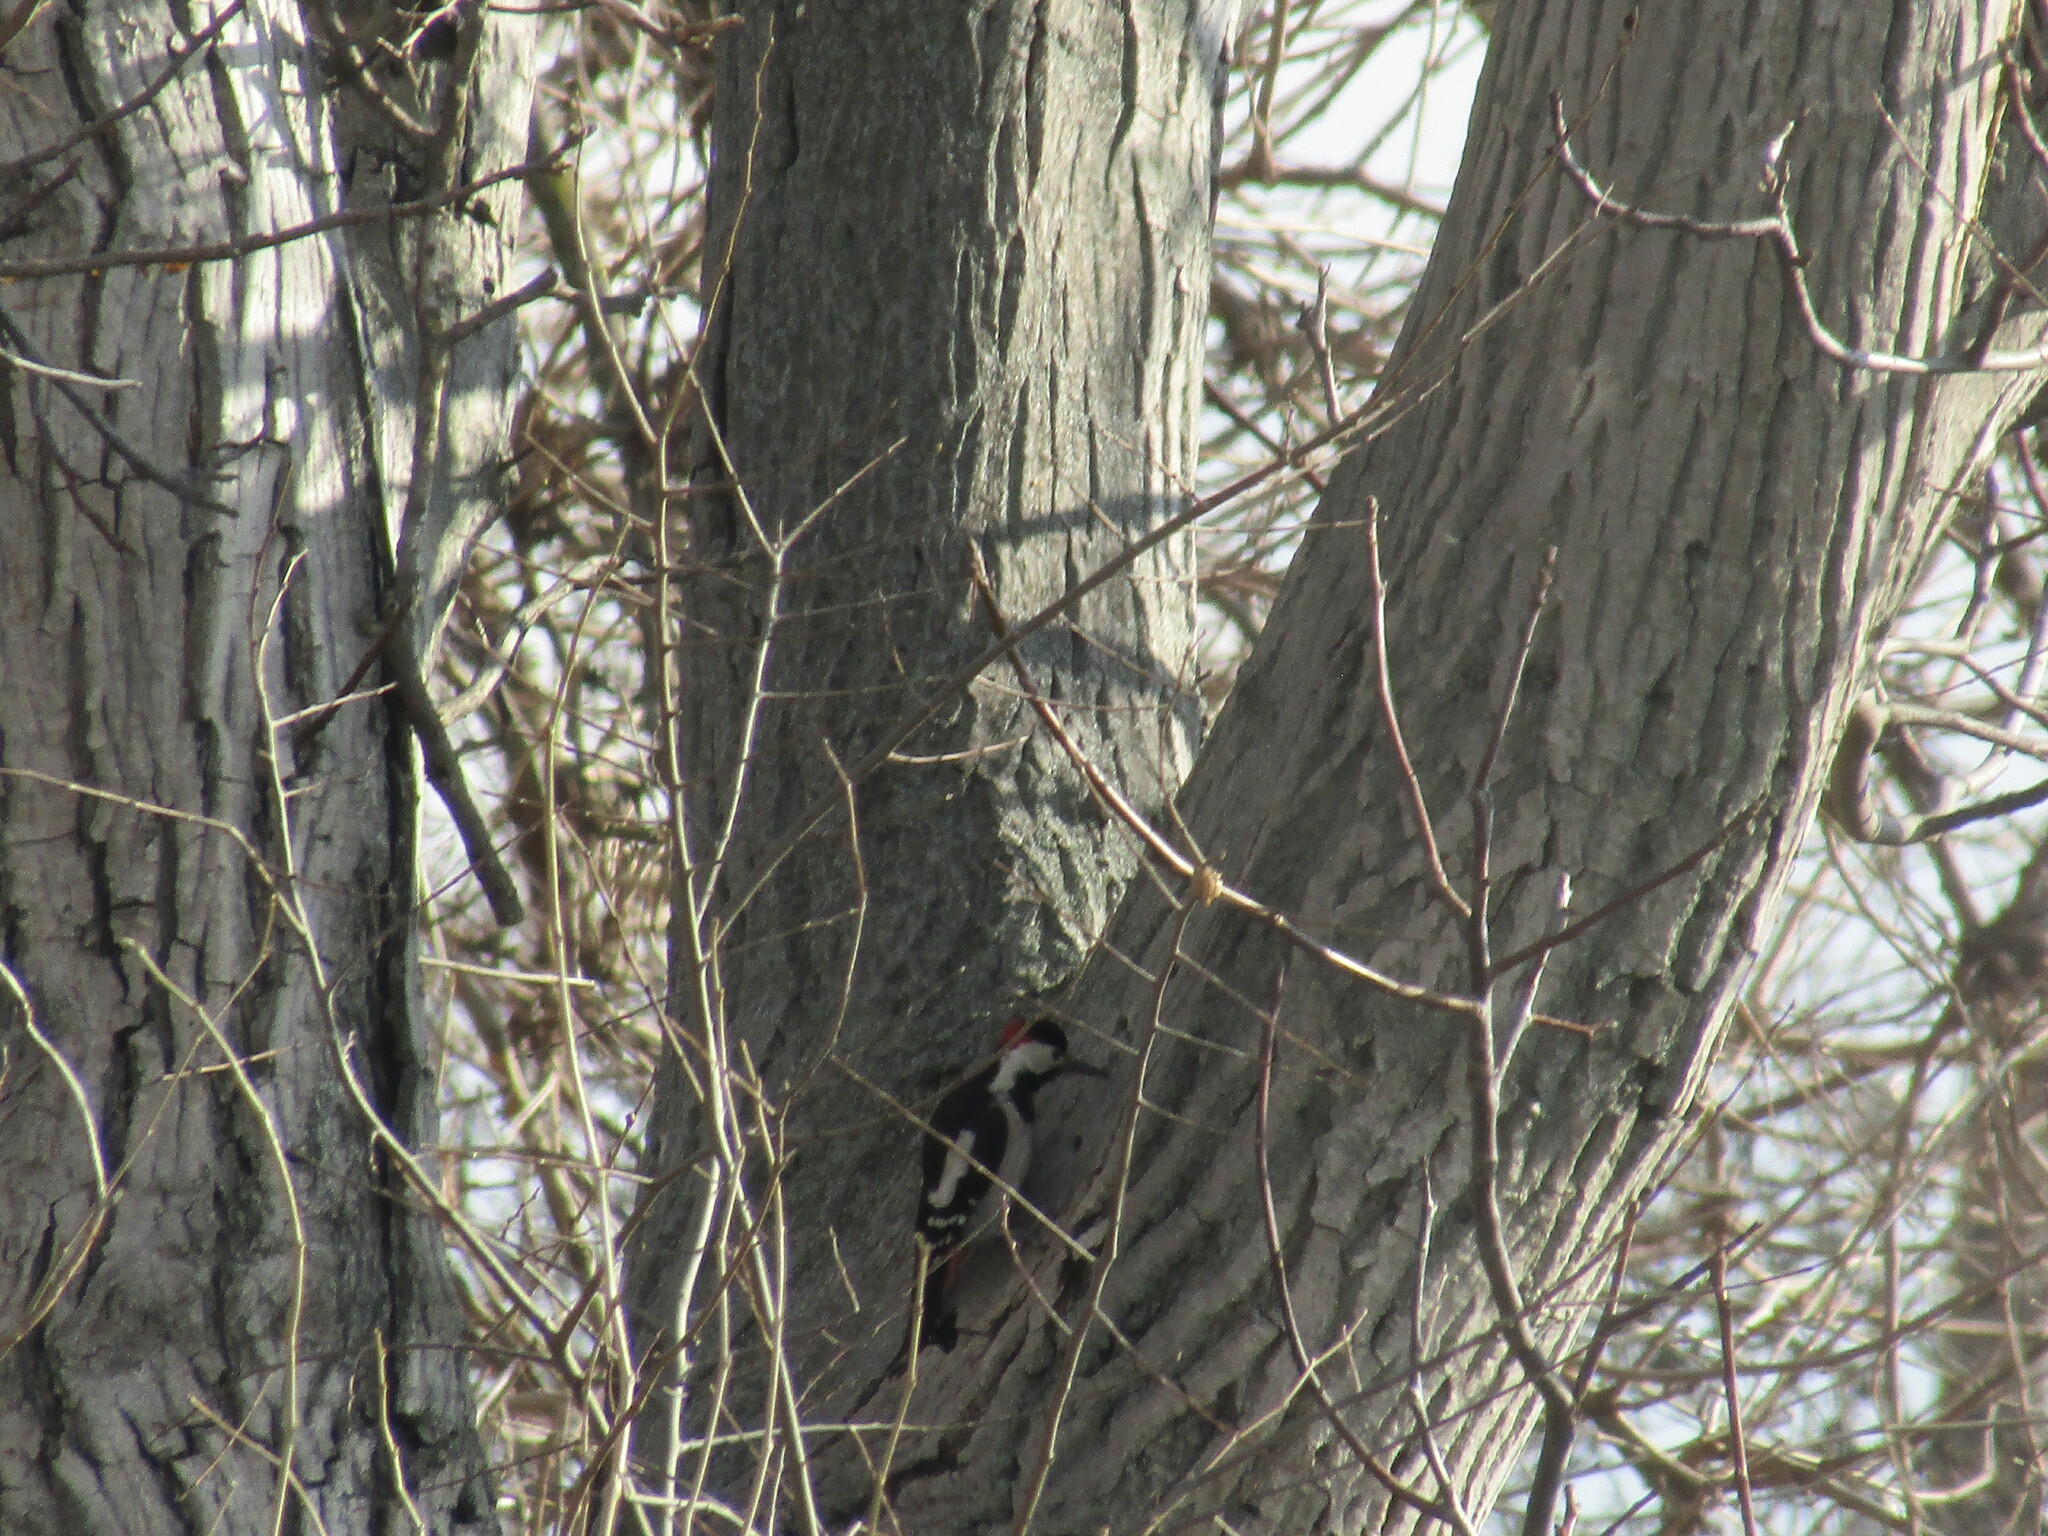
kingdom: Animalia
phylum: Chordata
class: Aves
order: Piciformes
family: Picidae
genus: Dendrocopos
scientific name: Dendrocopos syriacus
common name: Syrian woodpecker
